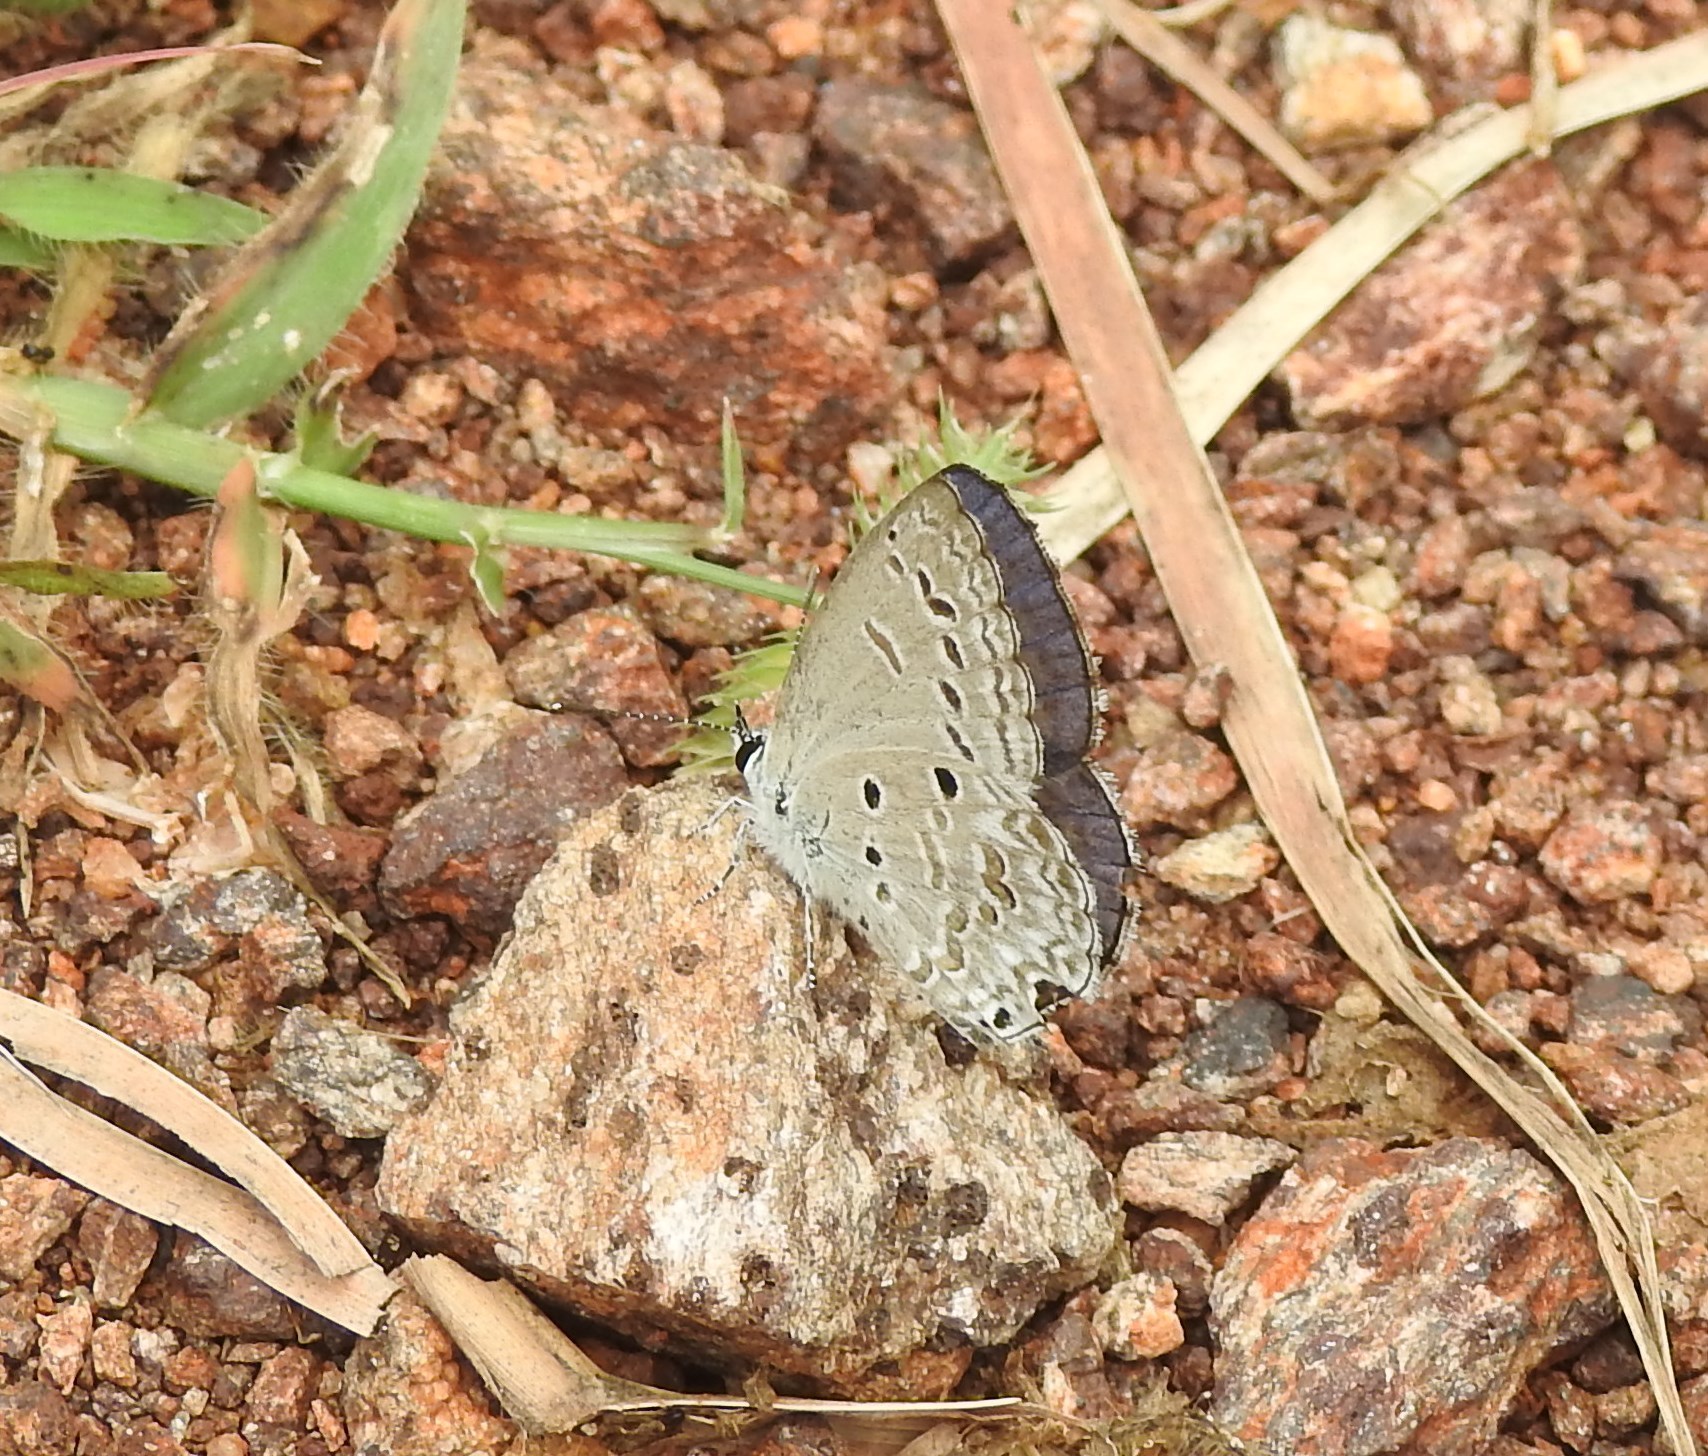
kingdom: Animalia
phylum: Arthropoda
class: Insecta
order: Lepidoptera
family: Lycaenidae
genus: Chilades
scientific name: Chilades laius
